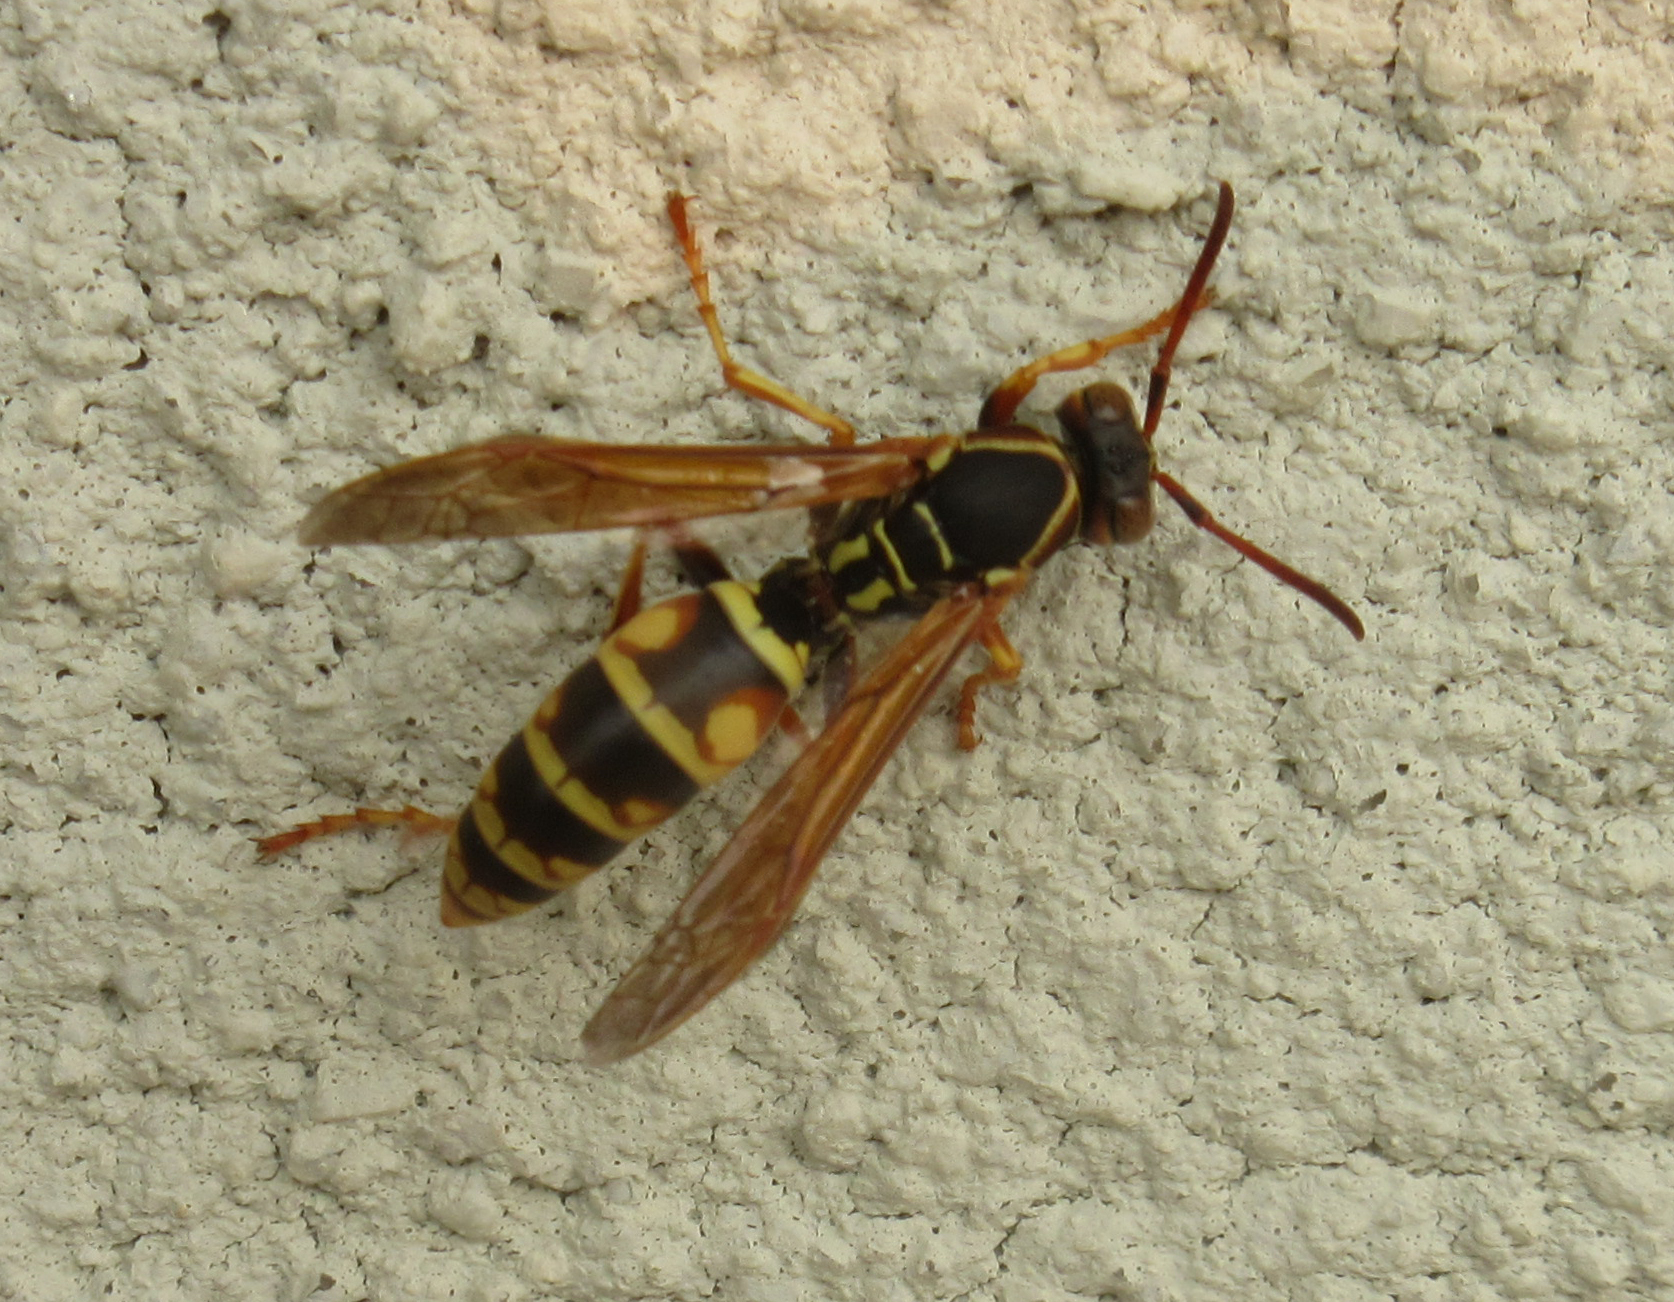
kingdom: Animalia
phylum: Arthropoda
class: Insecta
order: Hymenoptera
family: Eumenidae
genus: Polistes
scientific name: Polistes aurifer
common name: Paper wasp
